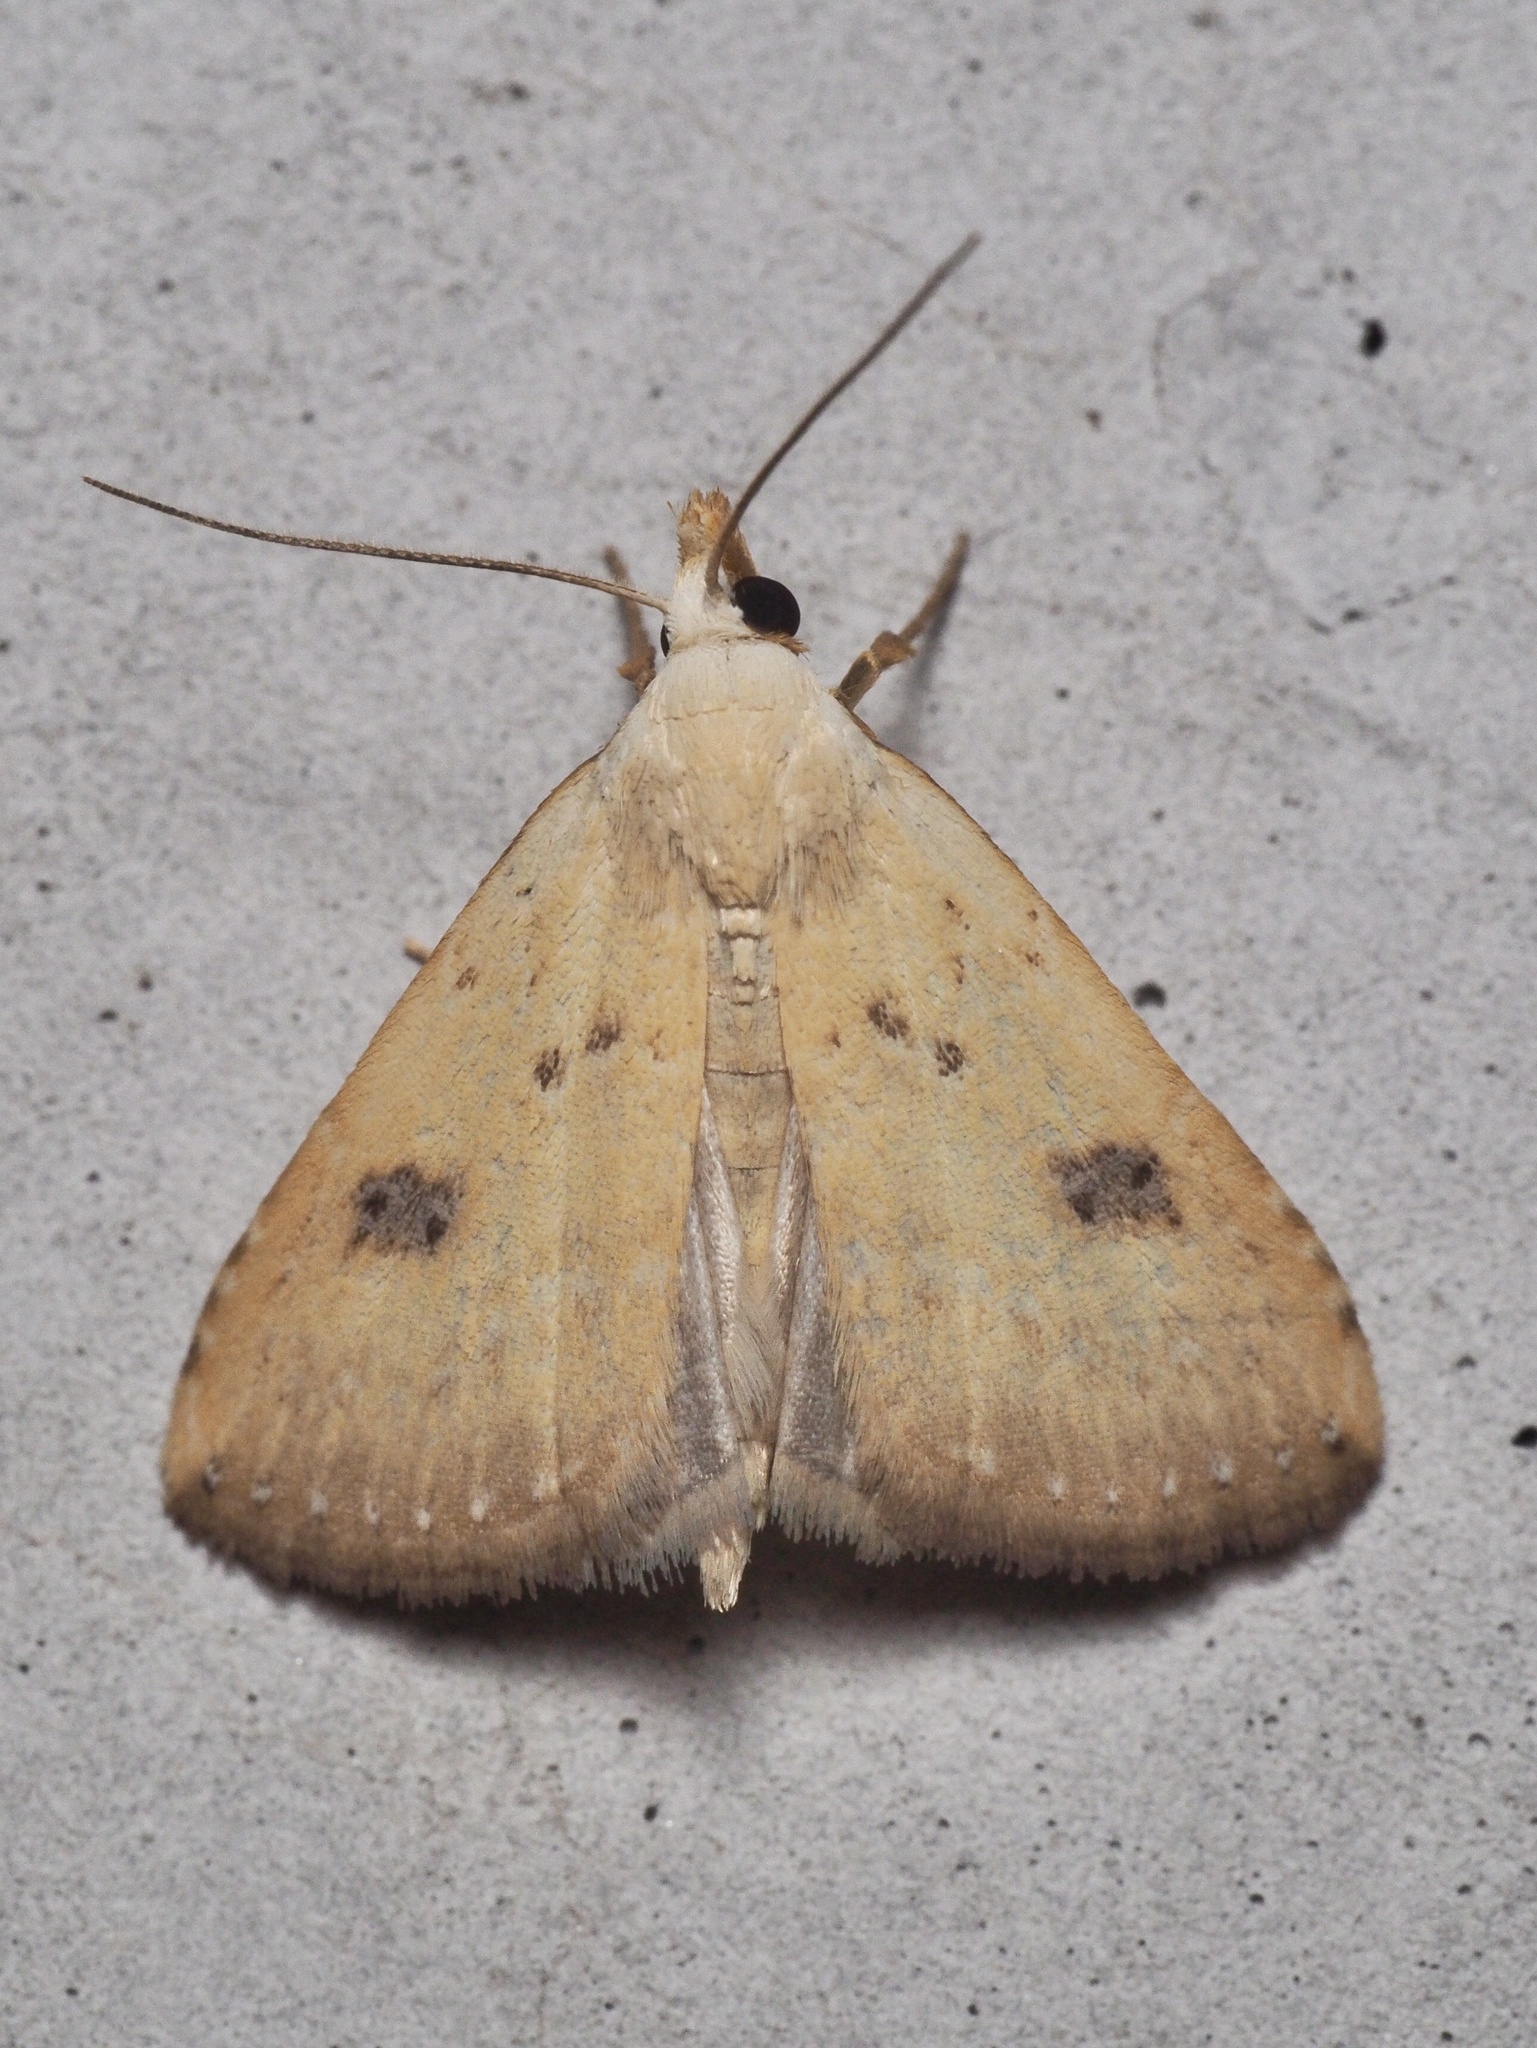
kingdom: Animalia
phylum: Arthropoda
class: Insecta
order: Lepidoptera
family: Erebidae
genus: Rivula
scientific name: Rivula sericealis
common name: Straw dot
